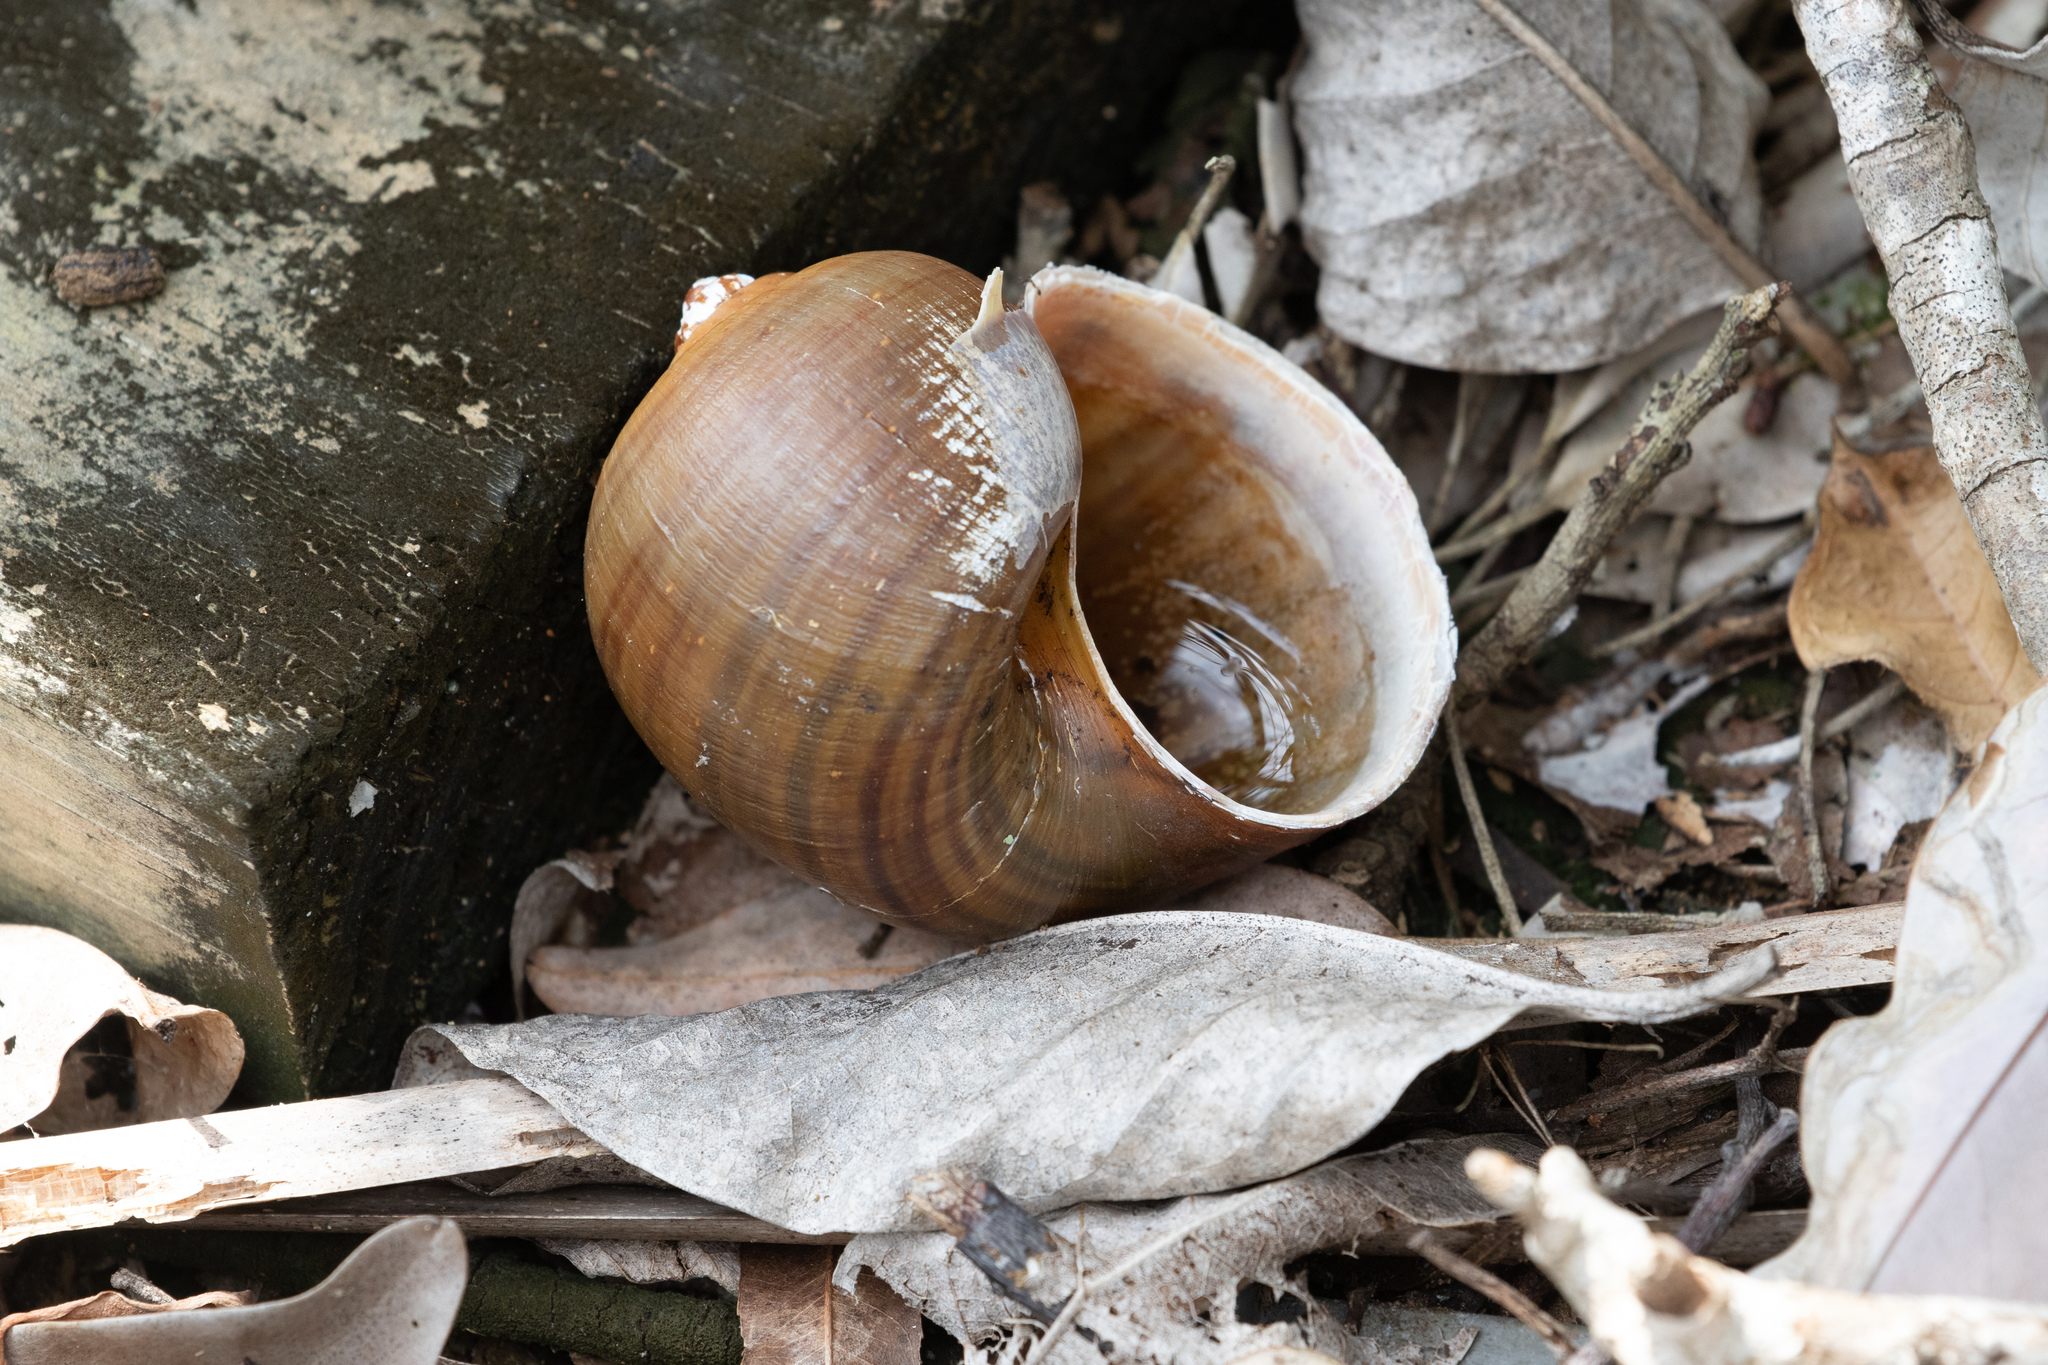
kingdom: Animalia
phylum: Mollusca
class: Gastropoda
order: Architaenioglossa
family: Ampullariidae
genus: Pomacea
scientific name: Pomacea maculata
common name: Giant applesnail
